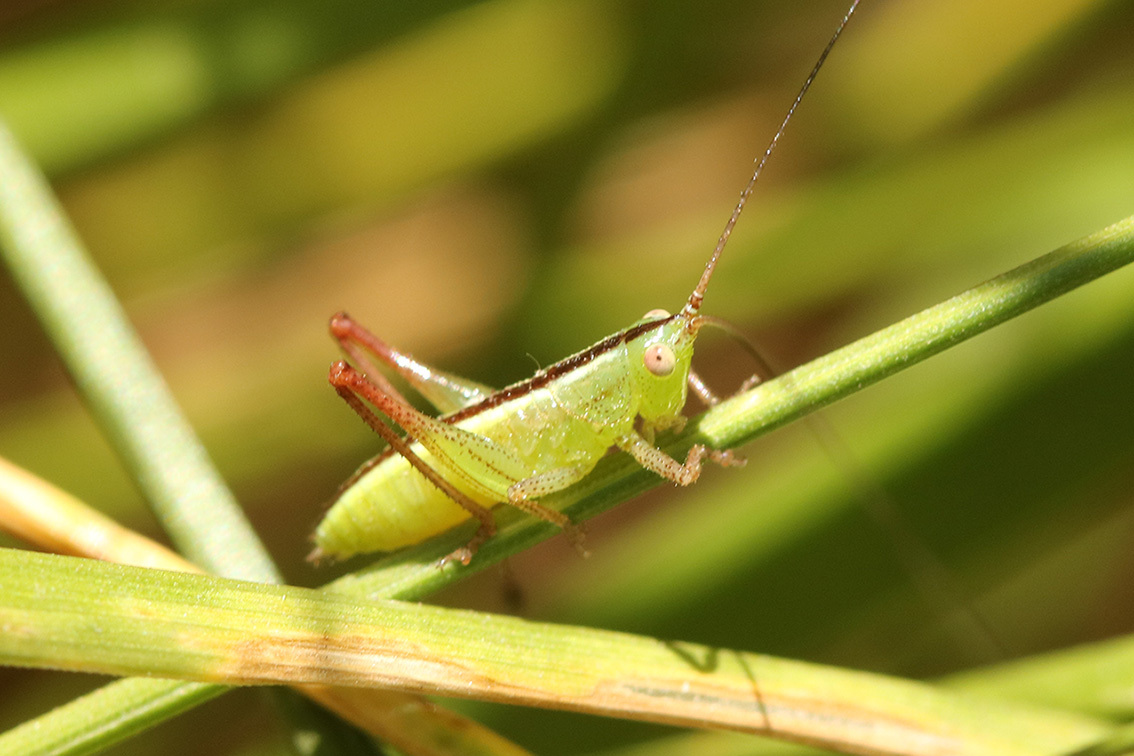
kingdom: Animalia
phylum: Arthropoda
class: Insecta
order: Orthoptera
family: Tettigoniidae
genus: Conocephalus
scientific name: Conocephalus longipes
